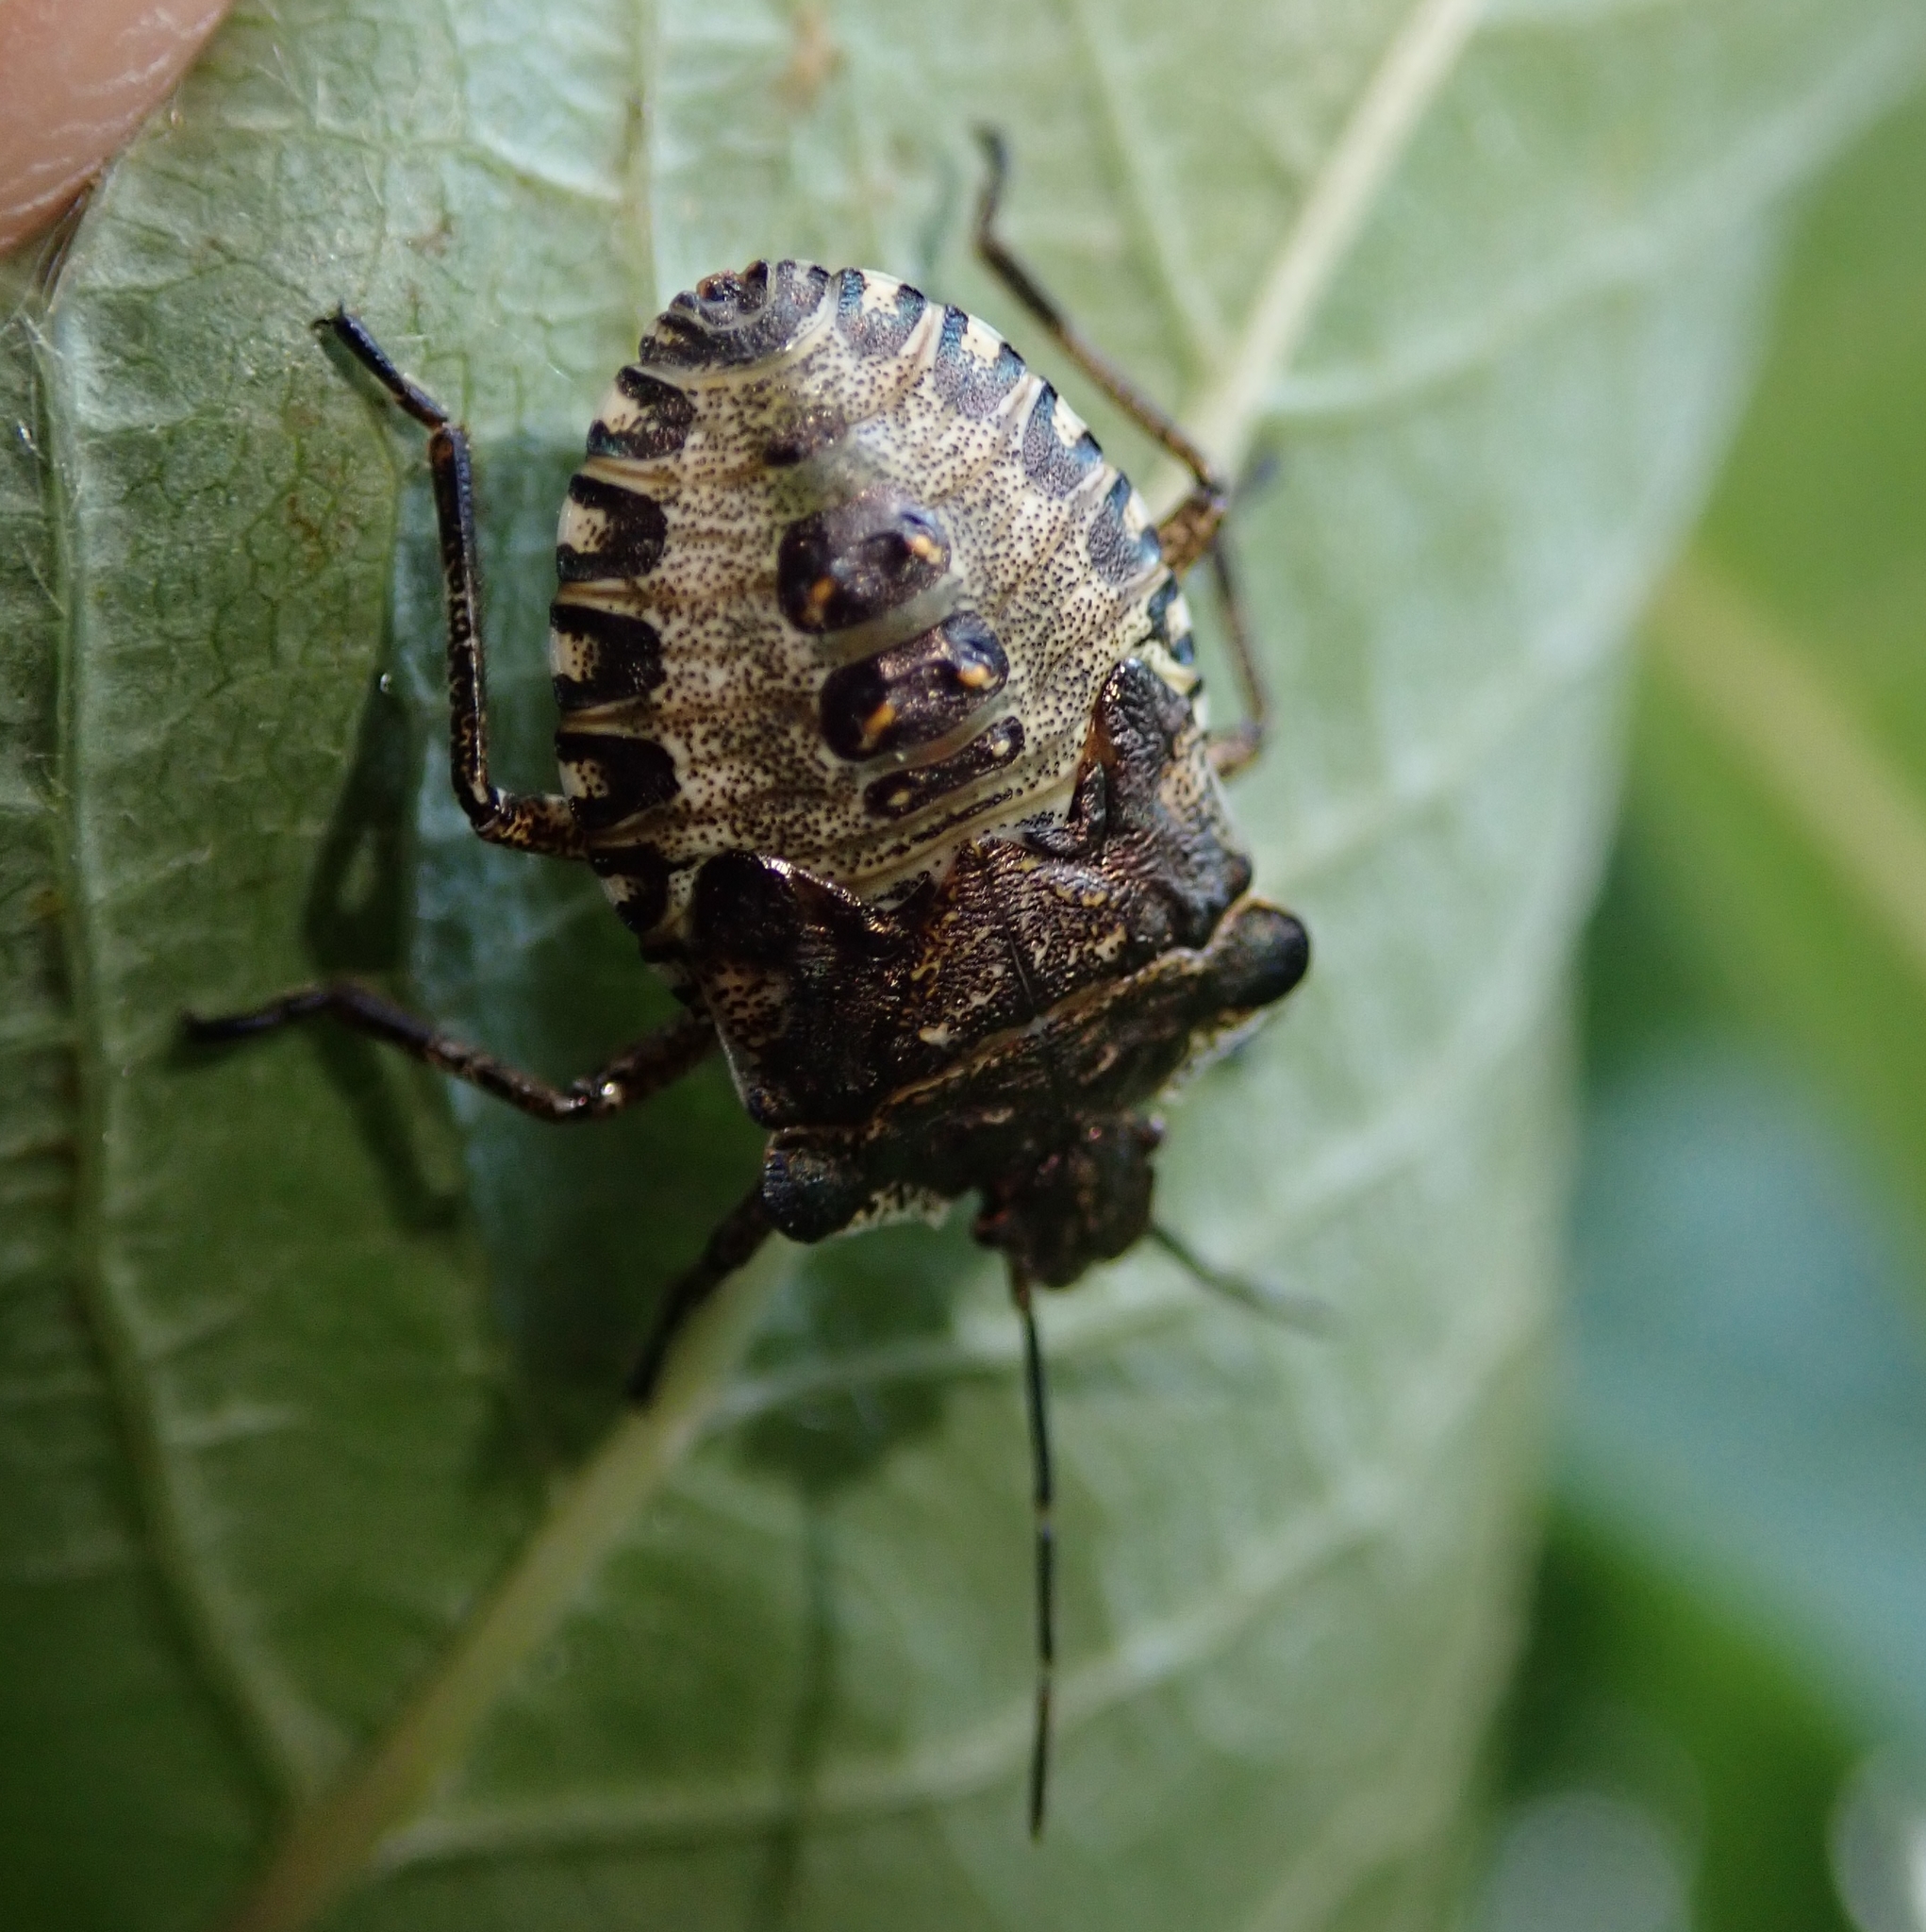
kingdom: Animalia
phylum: Arthropoda
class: Insecta
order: Hemiptera
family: Pentatomidae
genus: Pentatoma
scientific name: Pentatoma rufipes
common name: Forest bug
